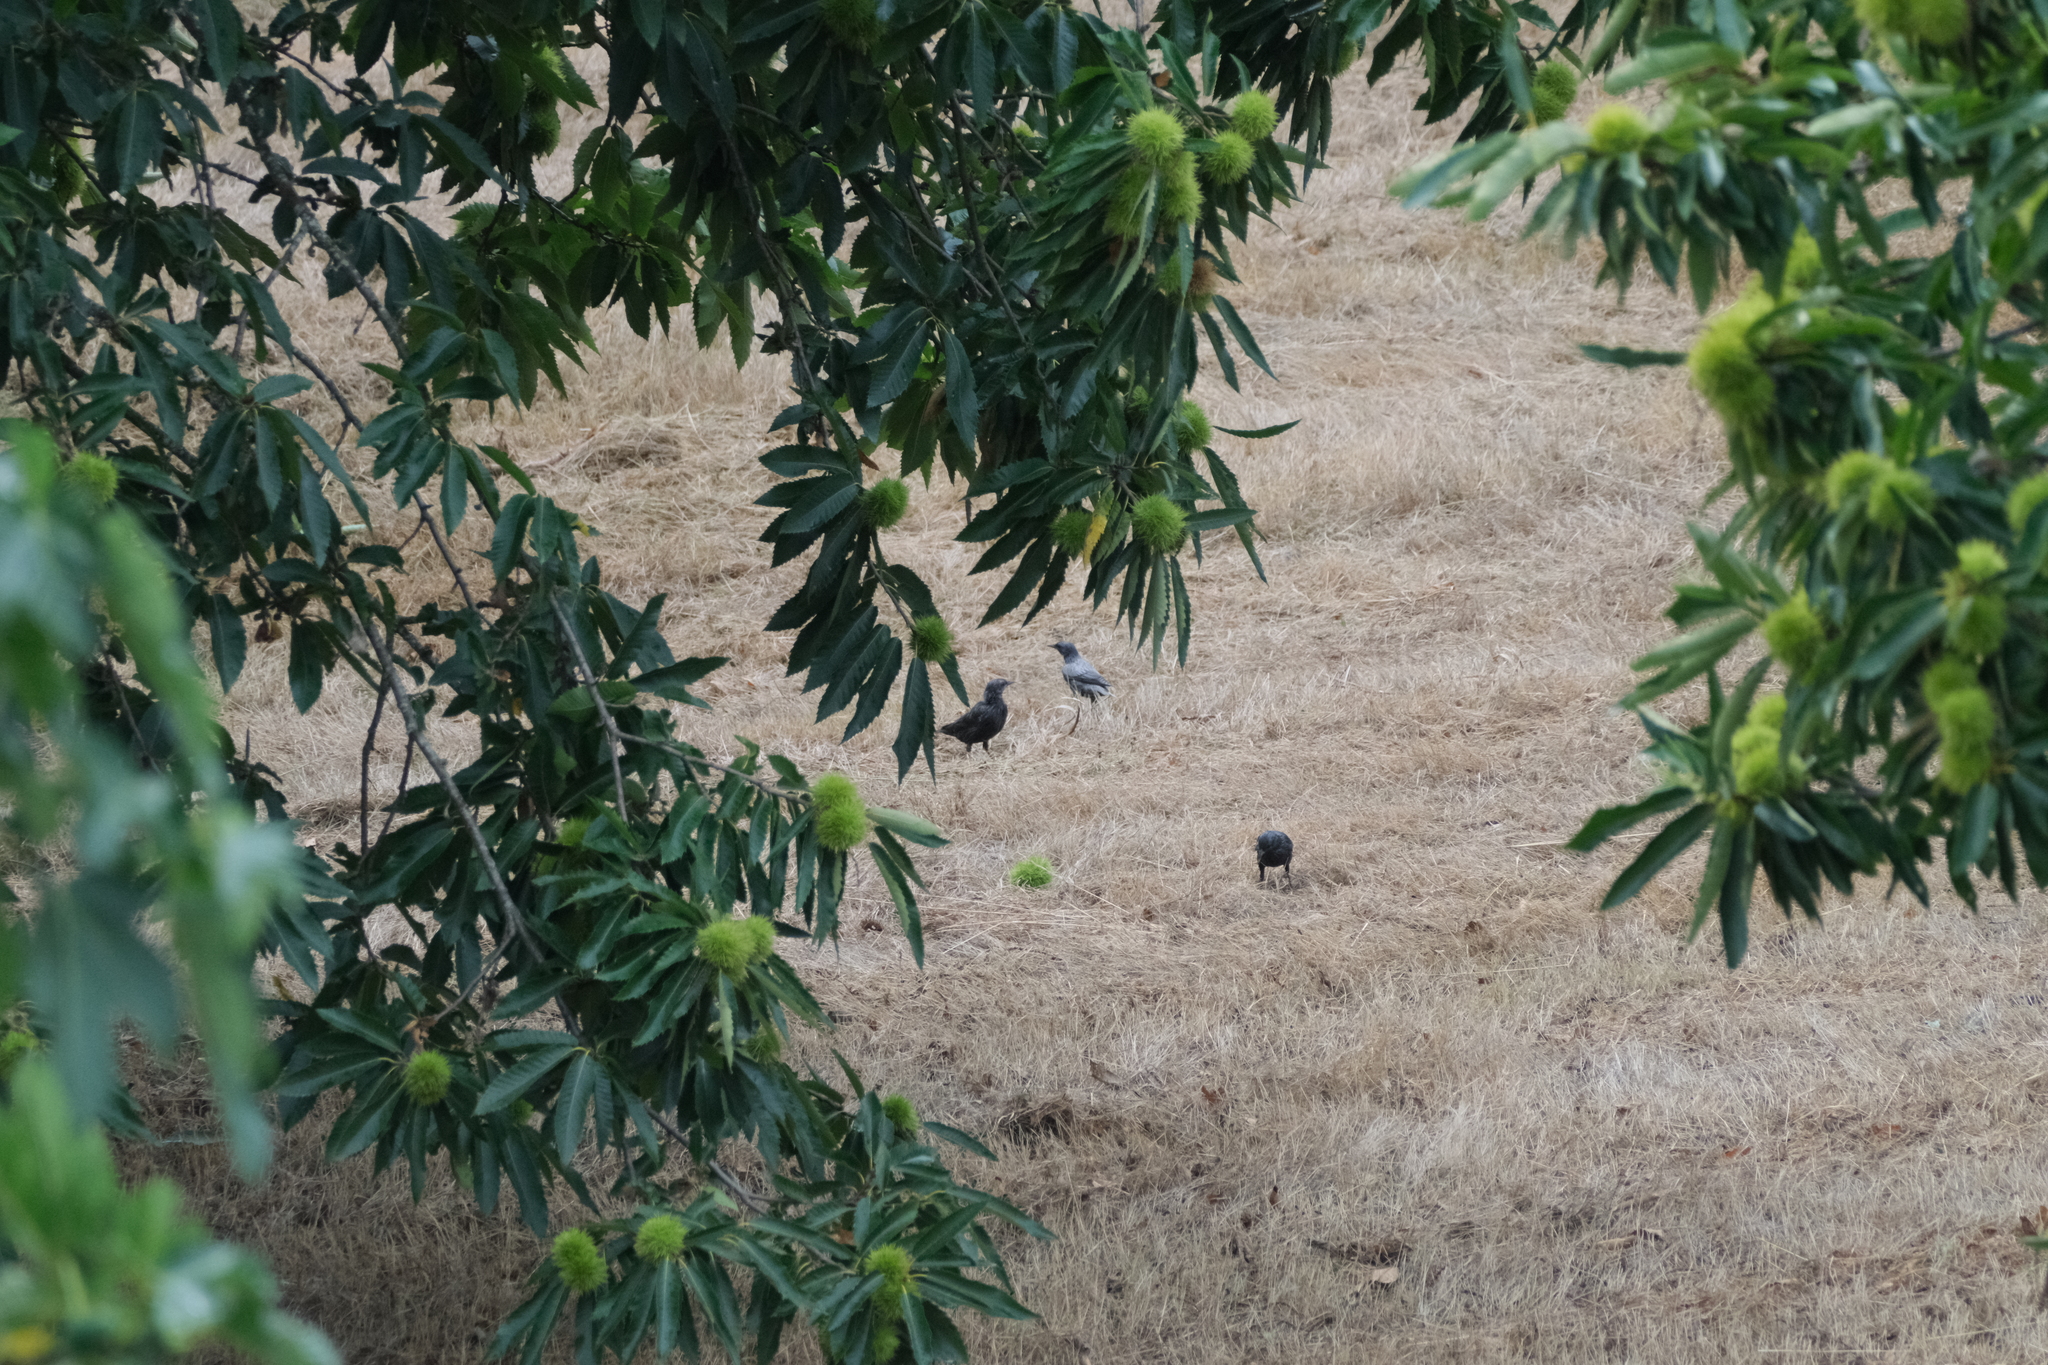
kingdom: Animalia
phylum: Chordata
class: Aves
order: Passeriformes
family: Sturnidae
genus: Sturnus
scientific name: Sturnus unicolor
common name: Spotless starling
